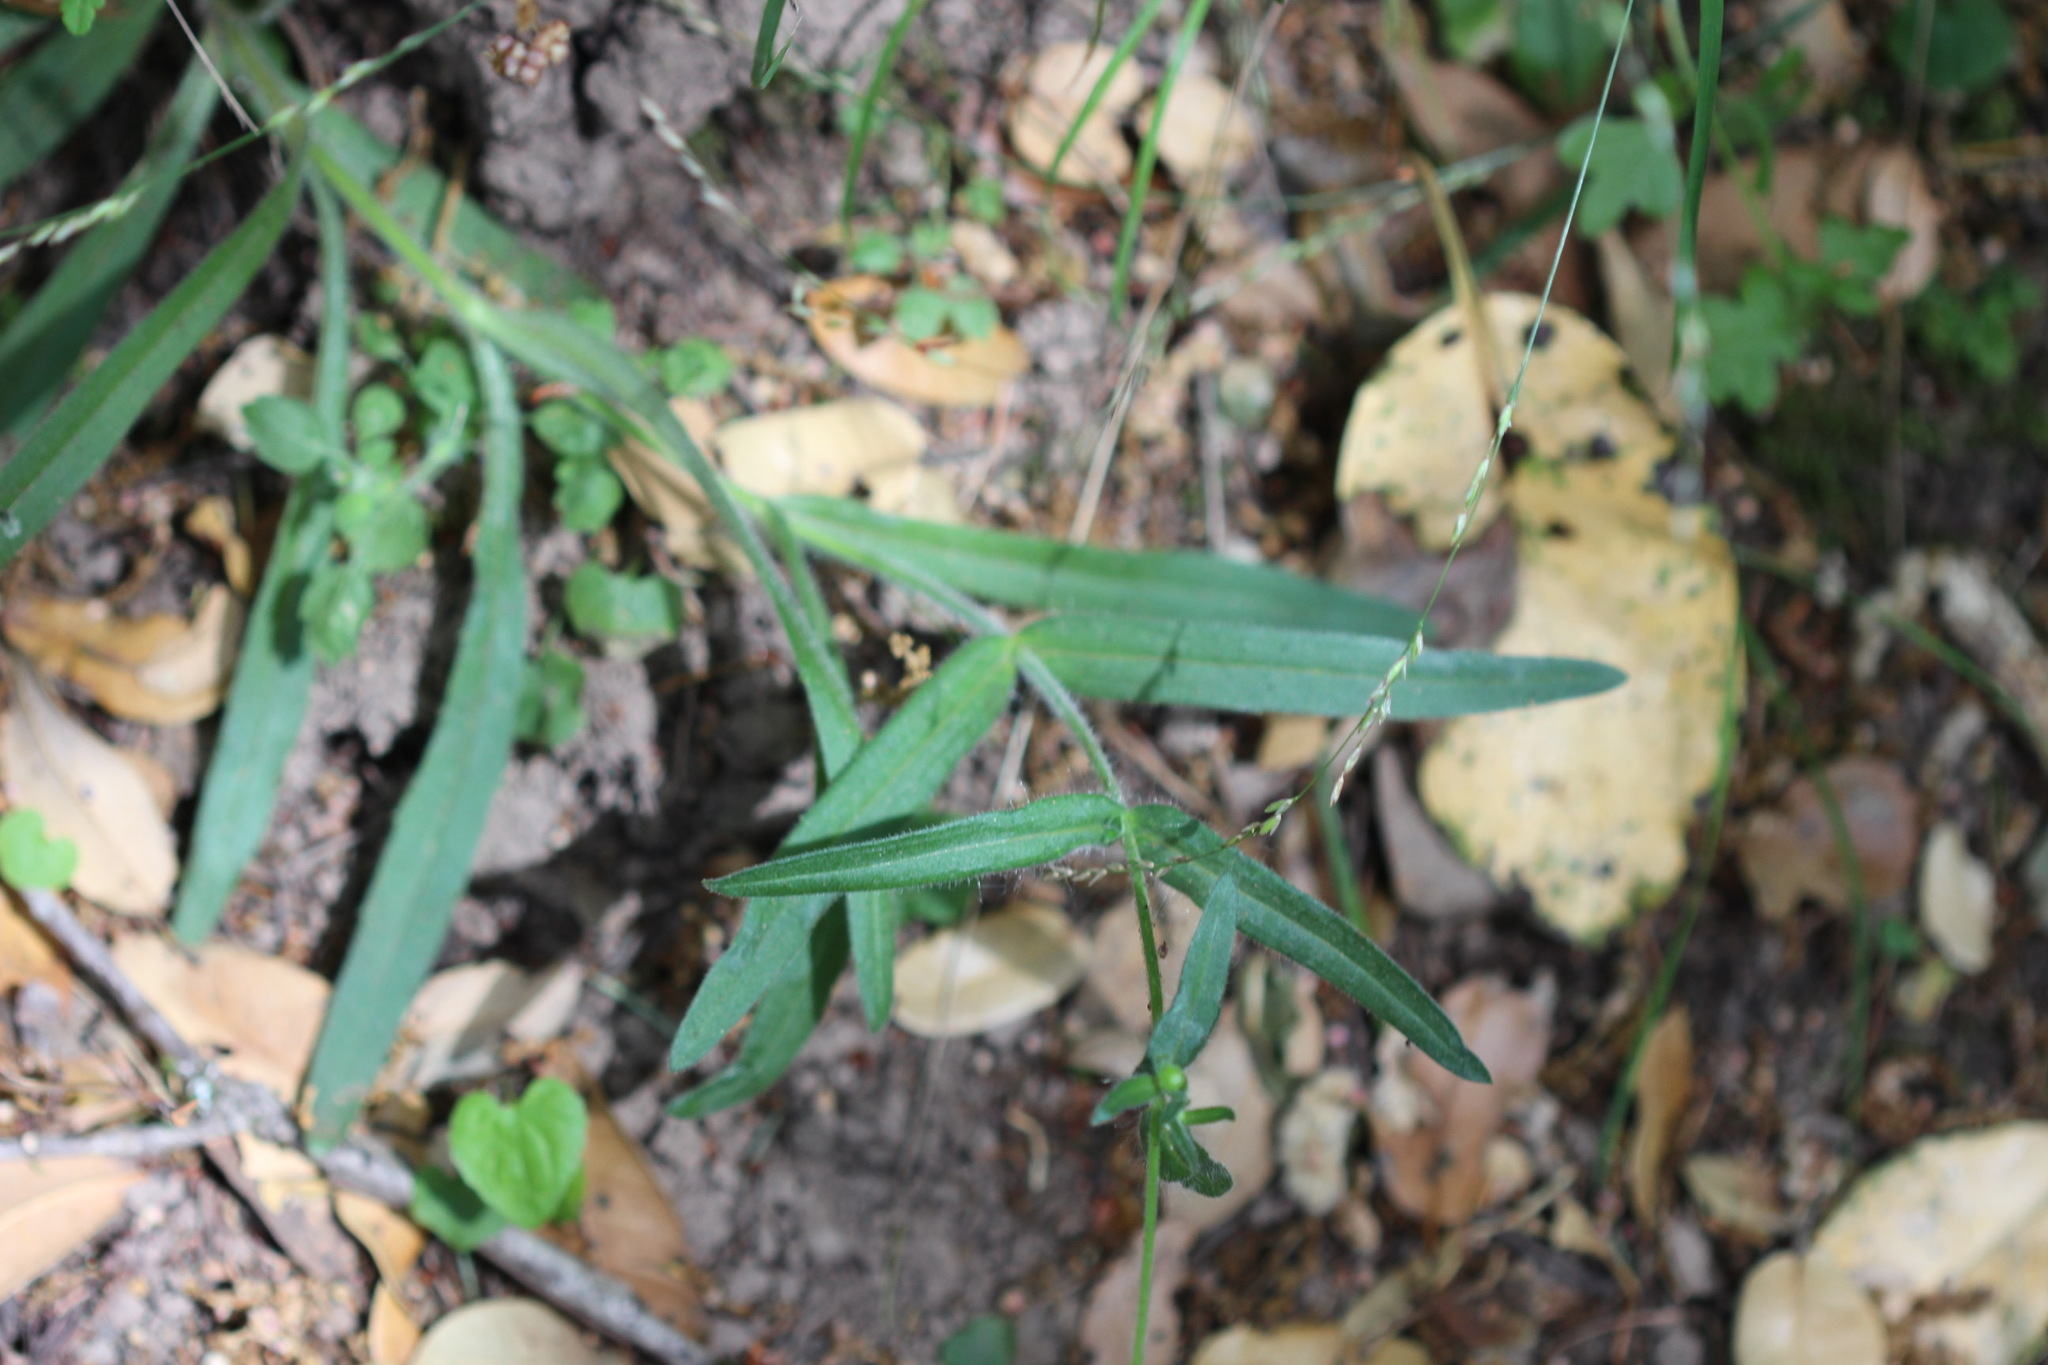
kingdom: Plantae
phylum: Tracheophyta
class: Magnoliopsida
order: Asterales
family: Asteraceae
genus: Anisocarpus
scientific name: Anisocarpus madioides
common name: Woodland madia
